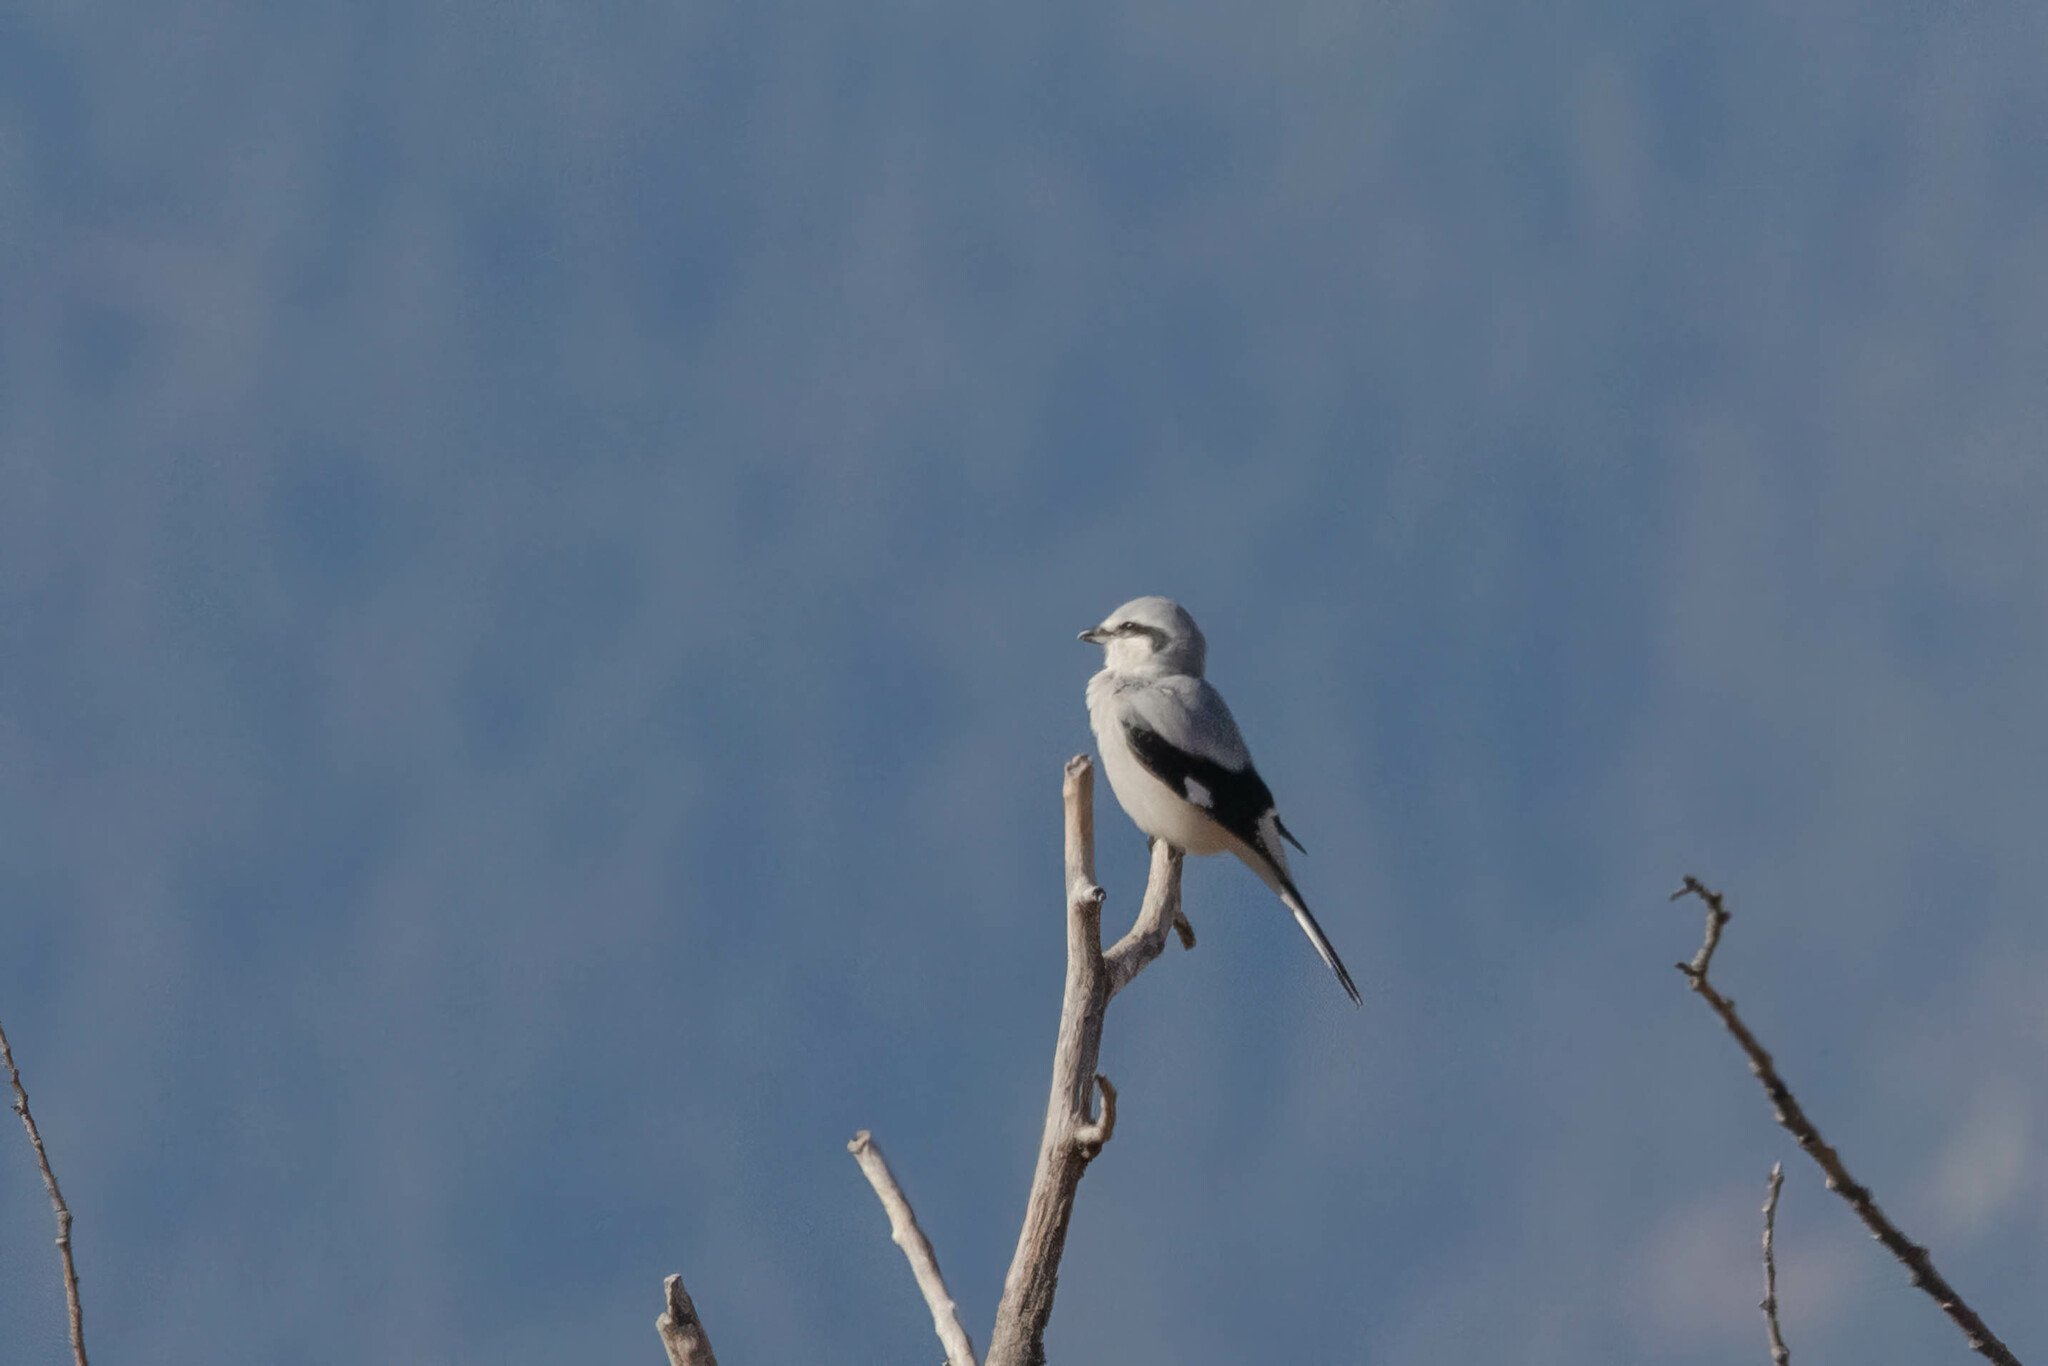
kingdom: Animalia
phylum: Chordata
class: Aves
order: Passeriformes
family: Laniidae
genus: Lanius
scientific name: Lanius borealis
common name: Northern shrike
